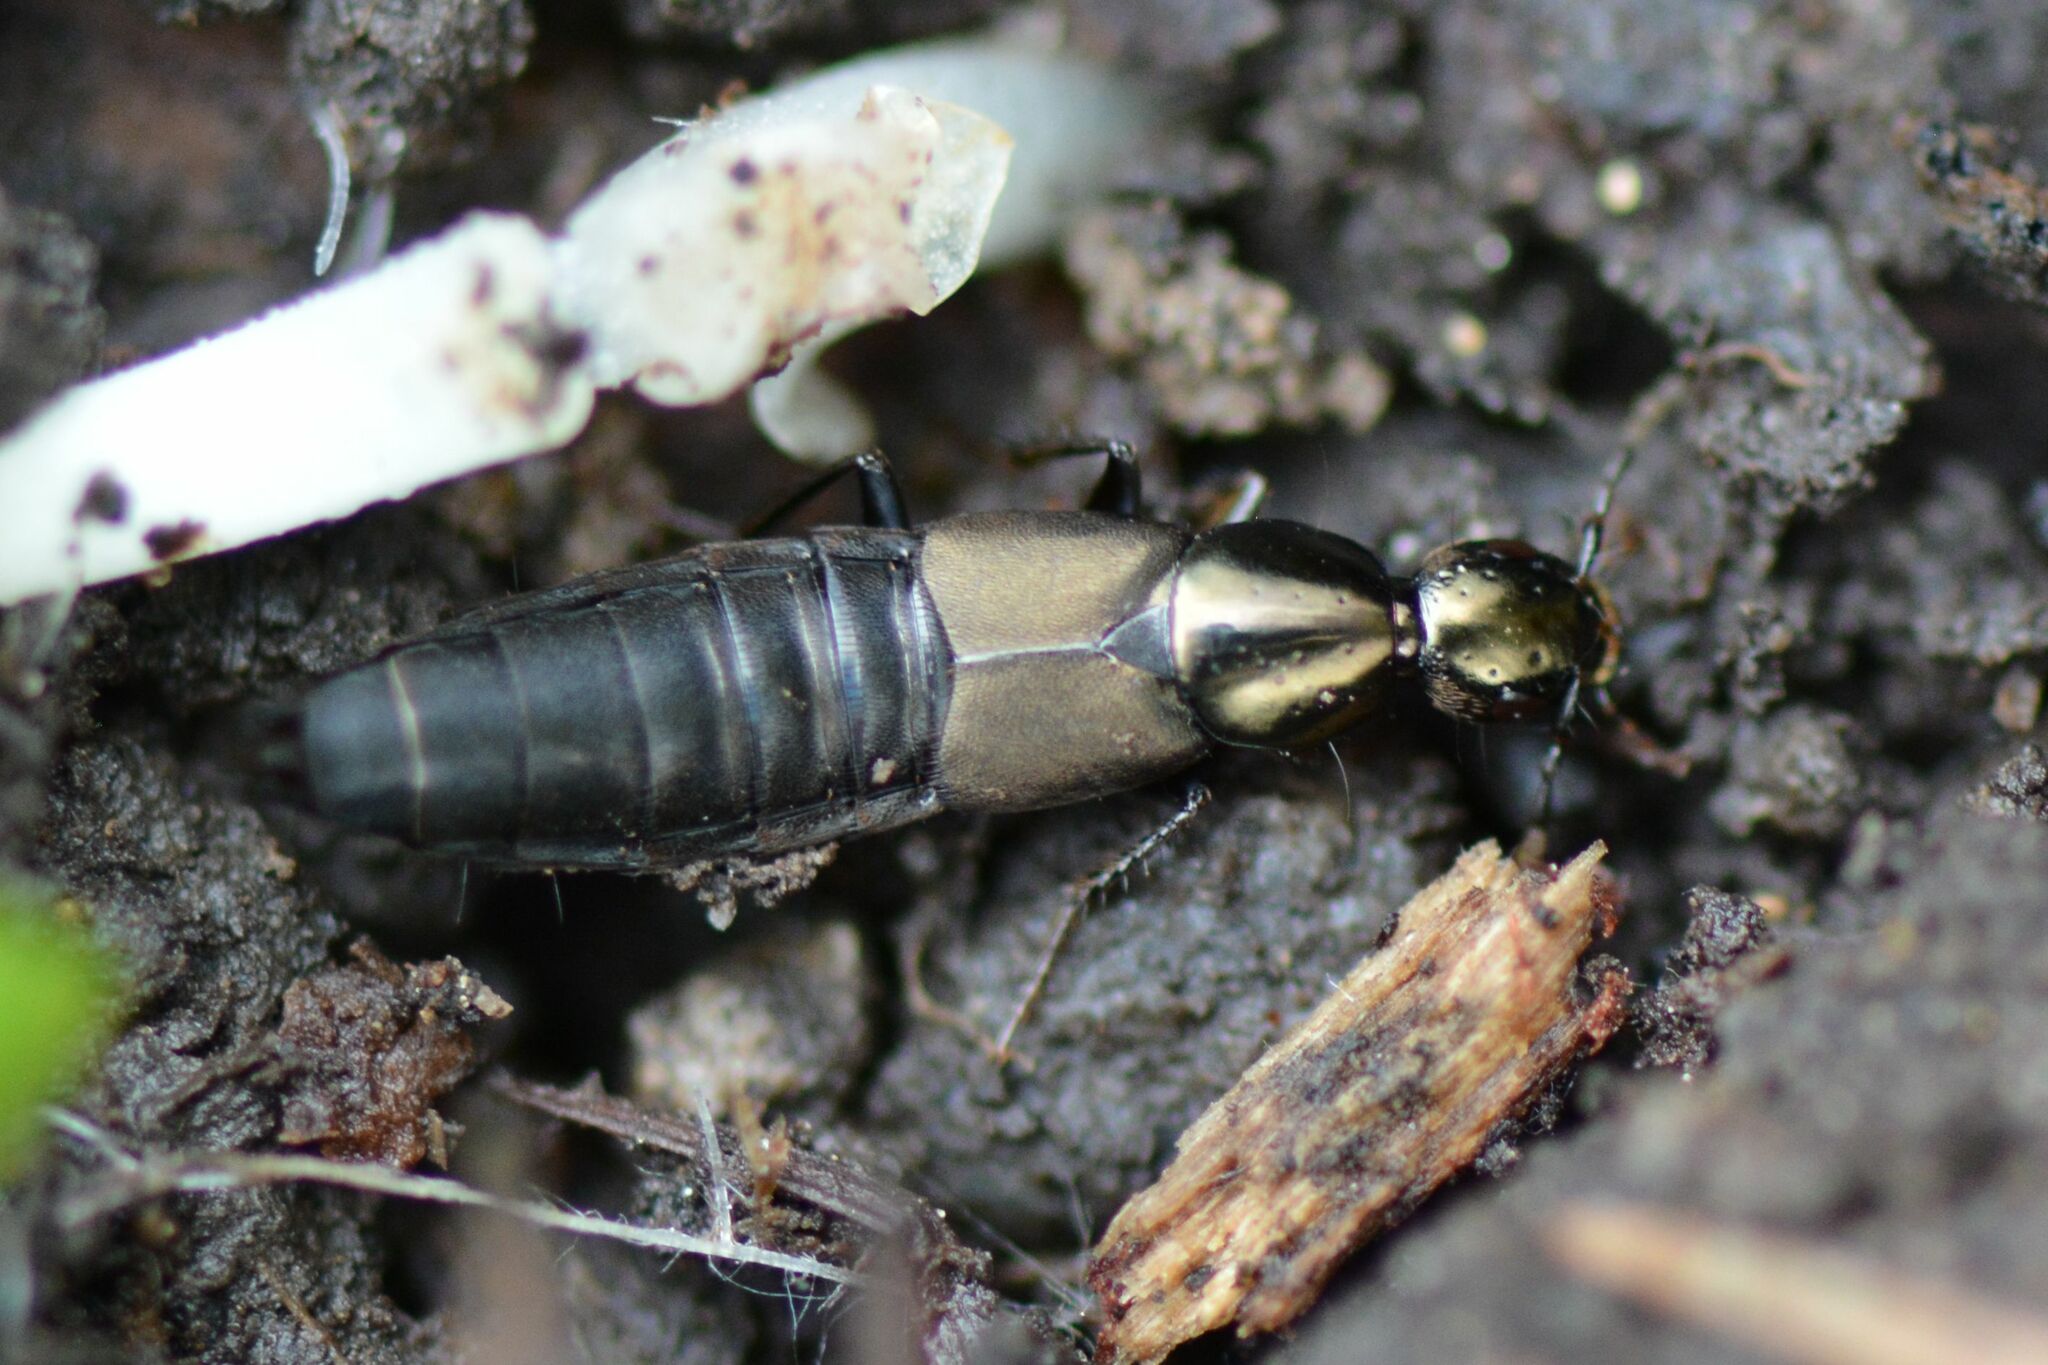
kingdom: Animalia
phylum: Arthropoda
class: Insecta
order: Coleoptera
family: Staphylinidae
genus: Philonthus
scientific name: Philonthus decorus
